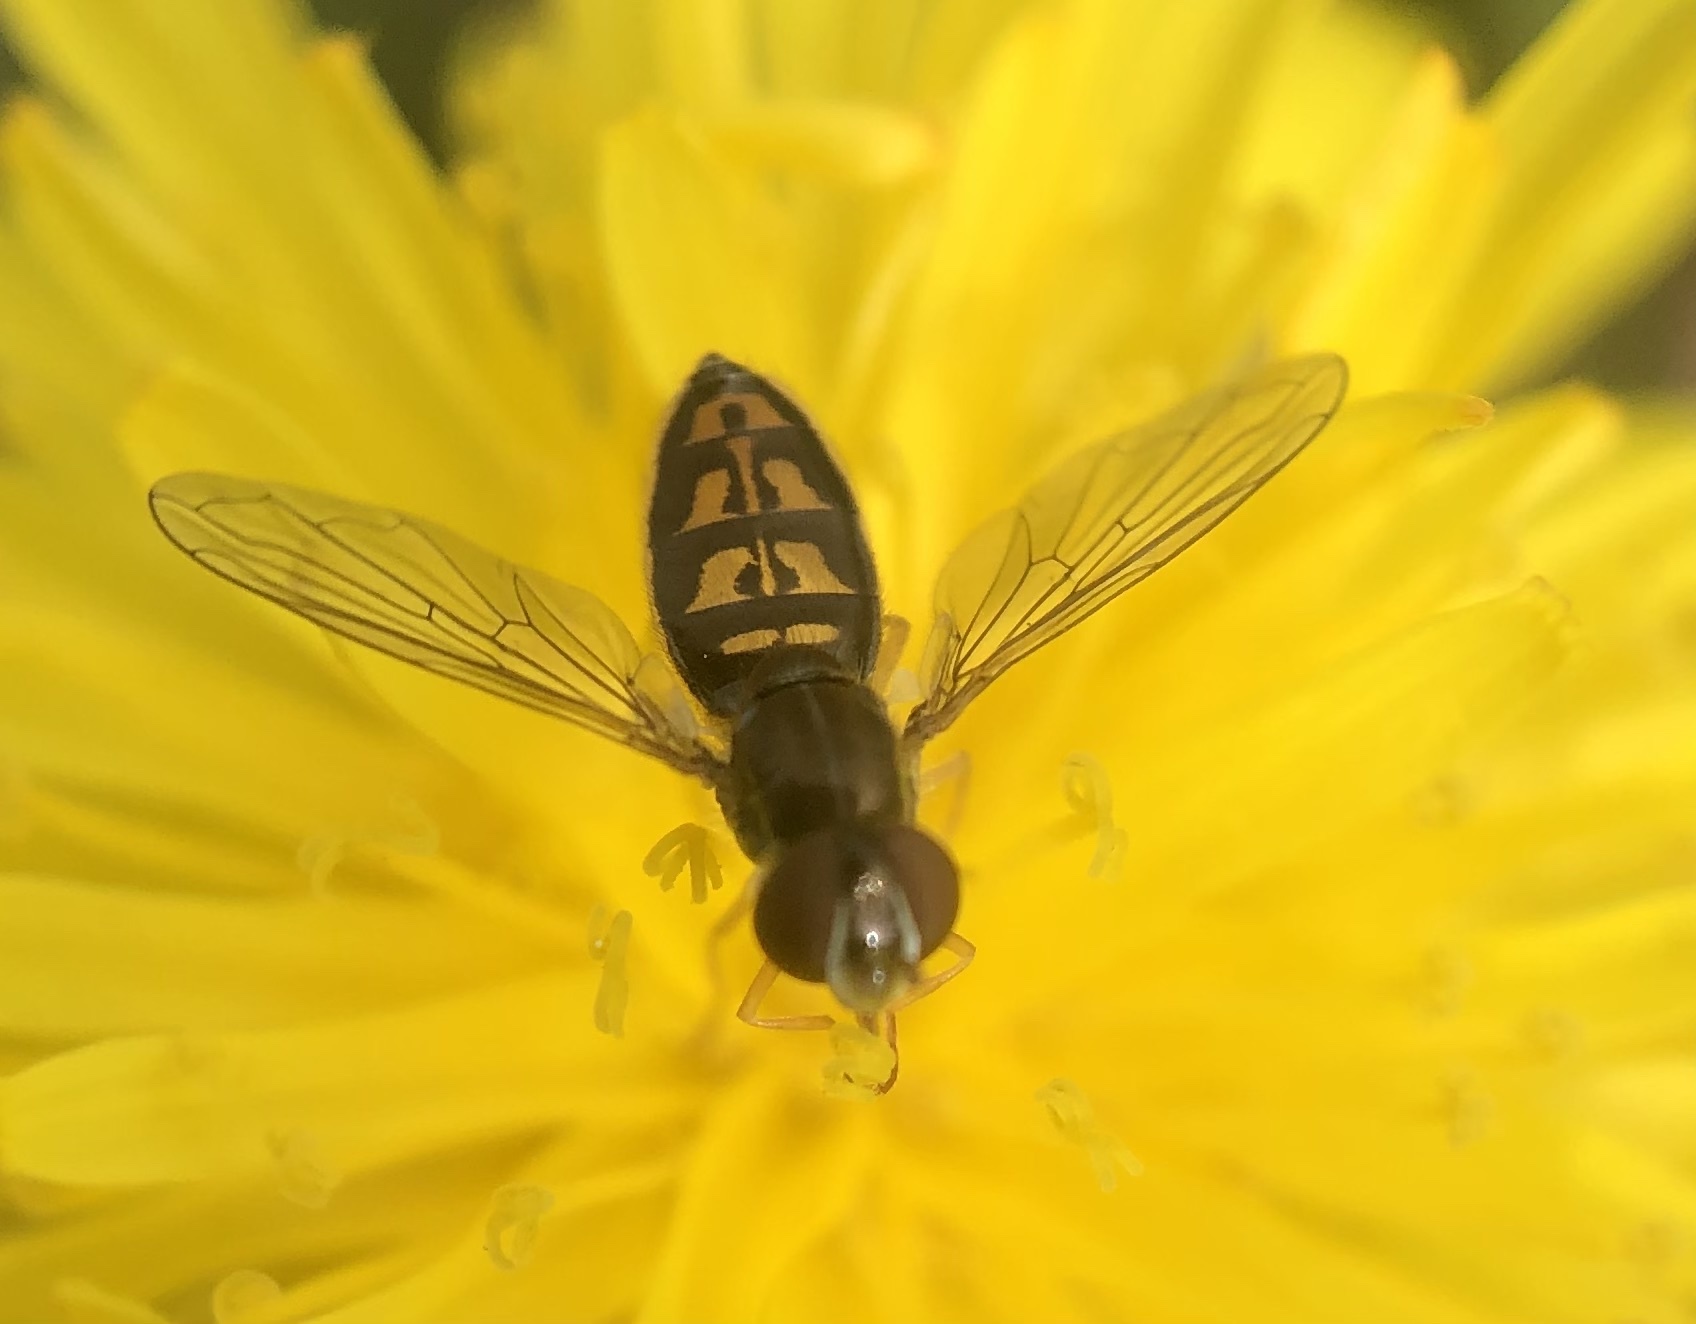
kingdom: Animalia
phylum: Arthropoda
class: Insecta
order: Diptera
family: Syrphidae
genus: Toxomerus
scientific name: Toxomerus marginatus
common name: Syrphid fly
